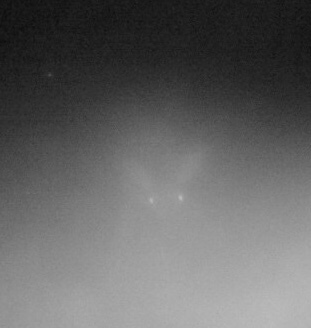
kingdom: Animalia
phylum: Chordata
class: Mammalia
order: Artiodactyla
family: Cervidae
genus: Odocoileus
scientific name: Odocoileus virginianus
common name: White-tailed deer
